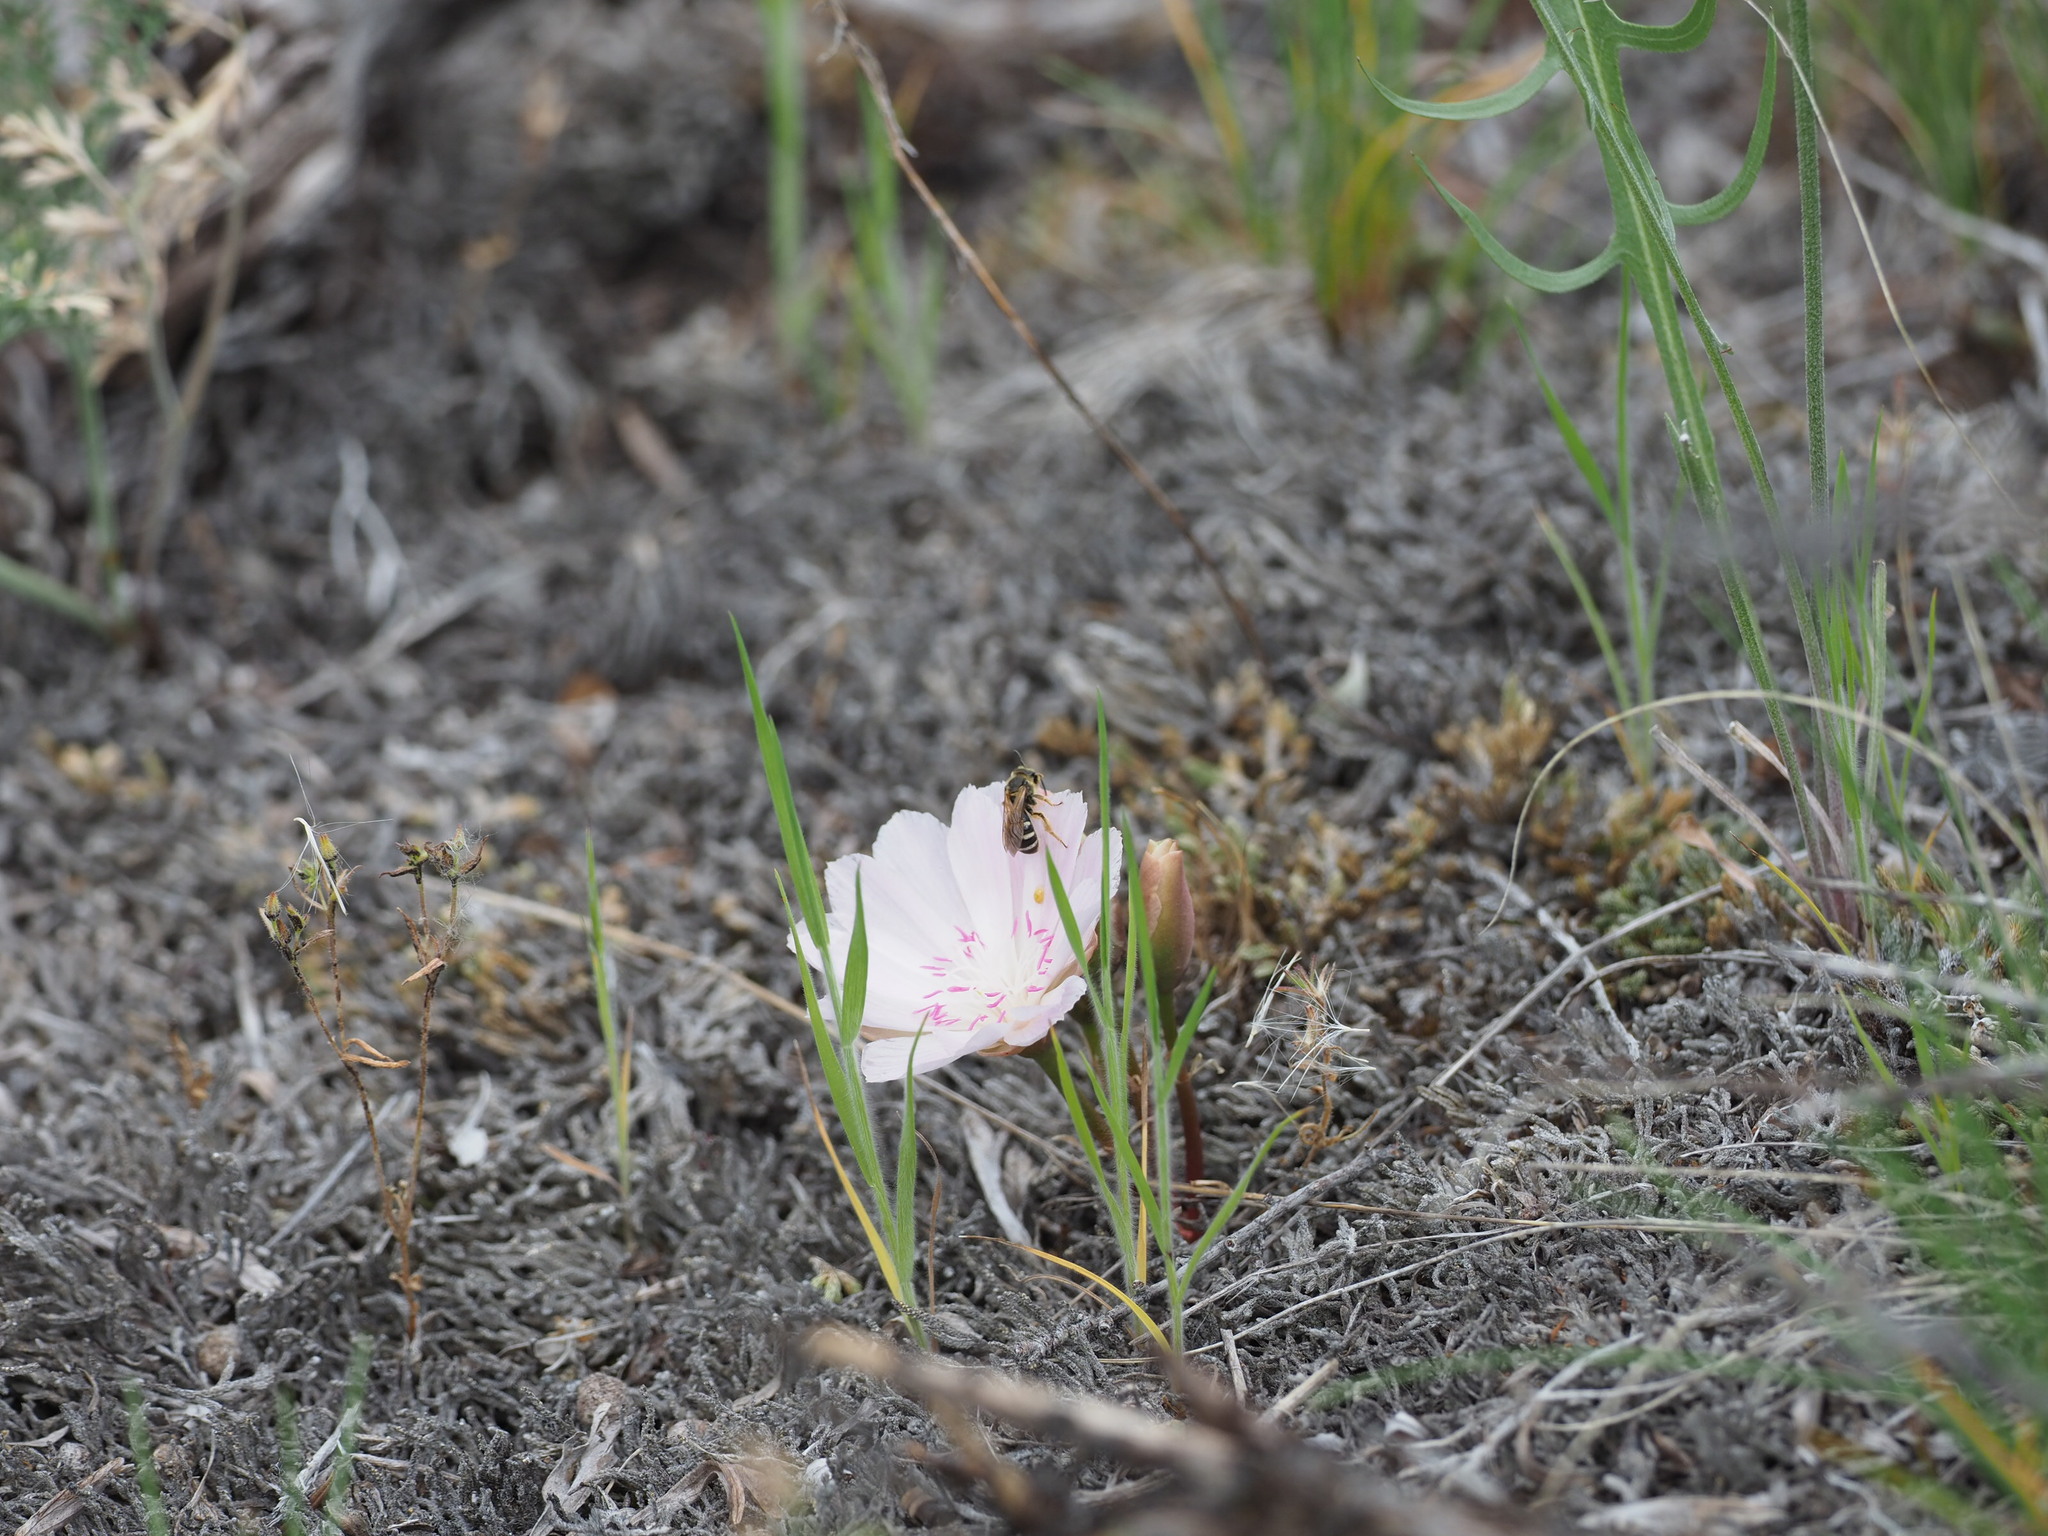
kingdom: Plantae
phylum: Tracheophyta
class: Magnoliopsida
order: Caryophyllales
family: Montiaceae
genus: Lewisia
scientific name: Lewisia rediviva
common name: Bitter-root
